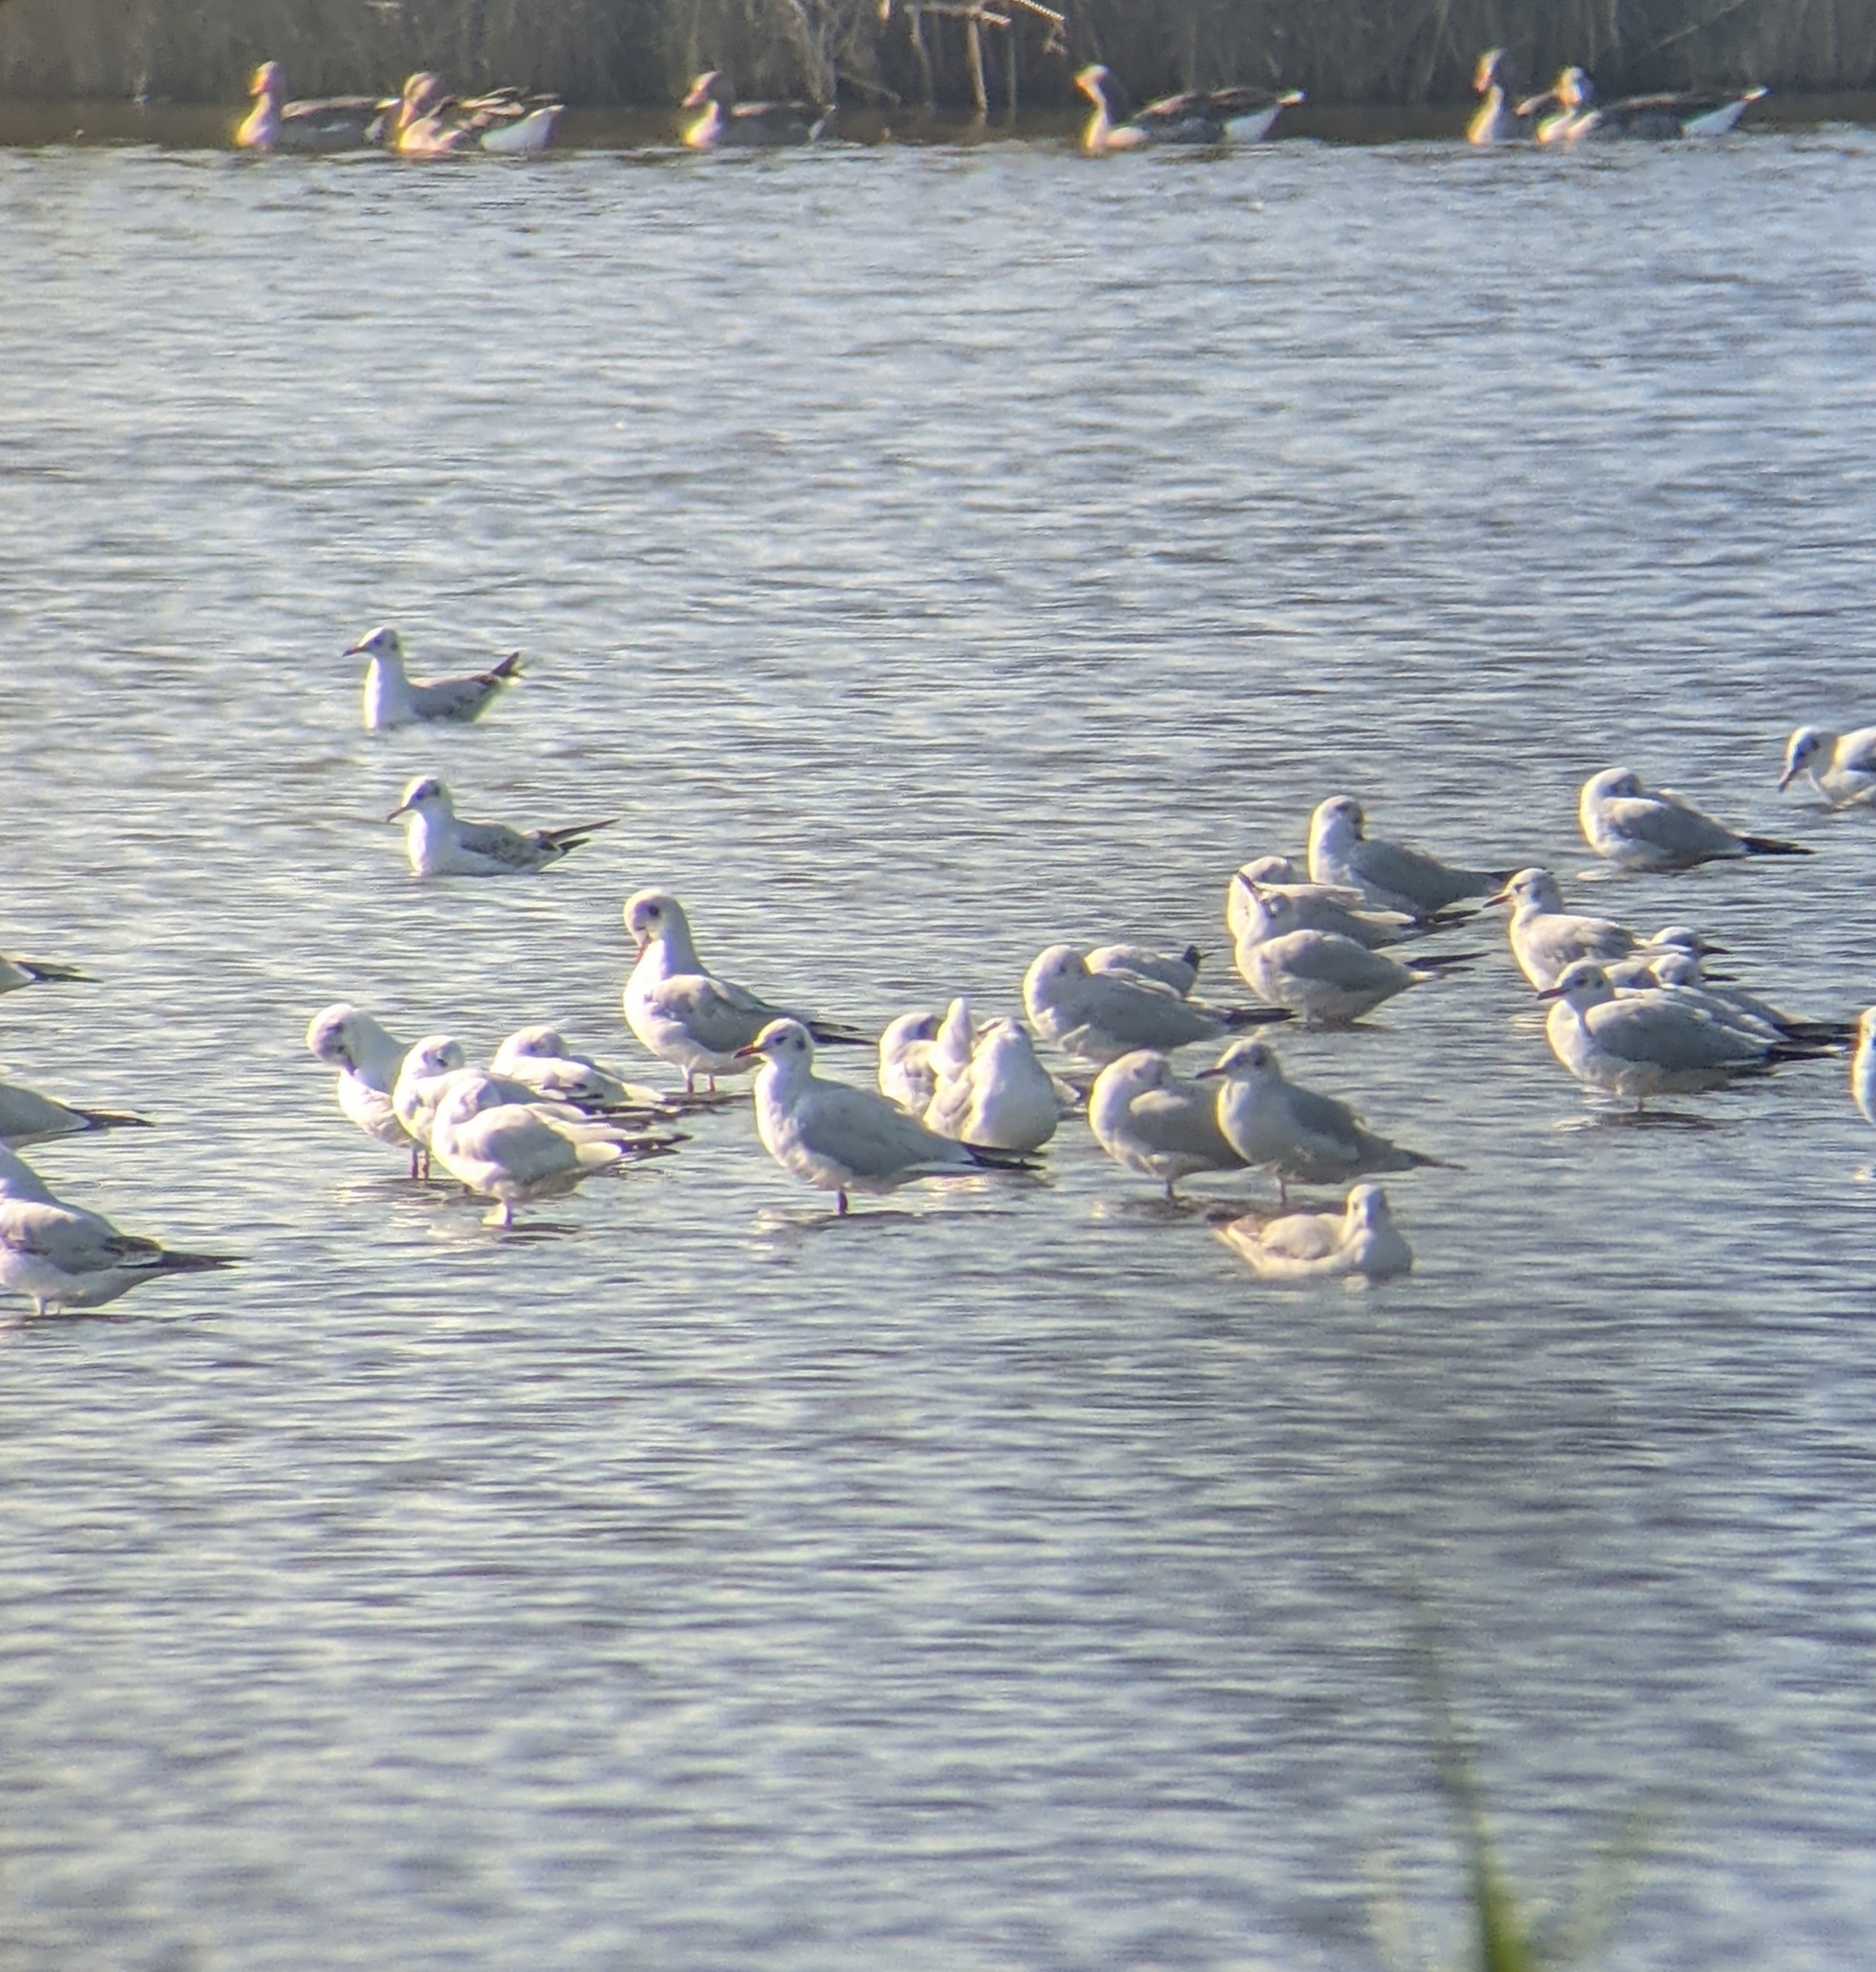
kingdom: Animalia
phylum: Chordata
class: Aves
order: Charadriiformes
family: Laridae
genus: Chroicocephalus
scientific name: Chroicocephalus ridibundus
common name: Black-headed gull
